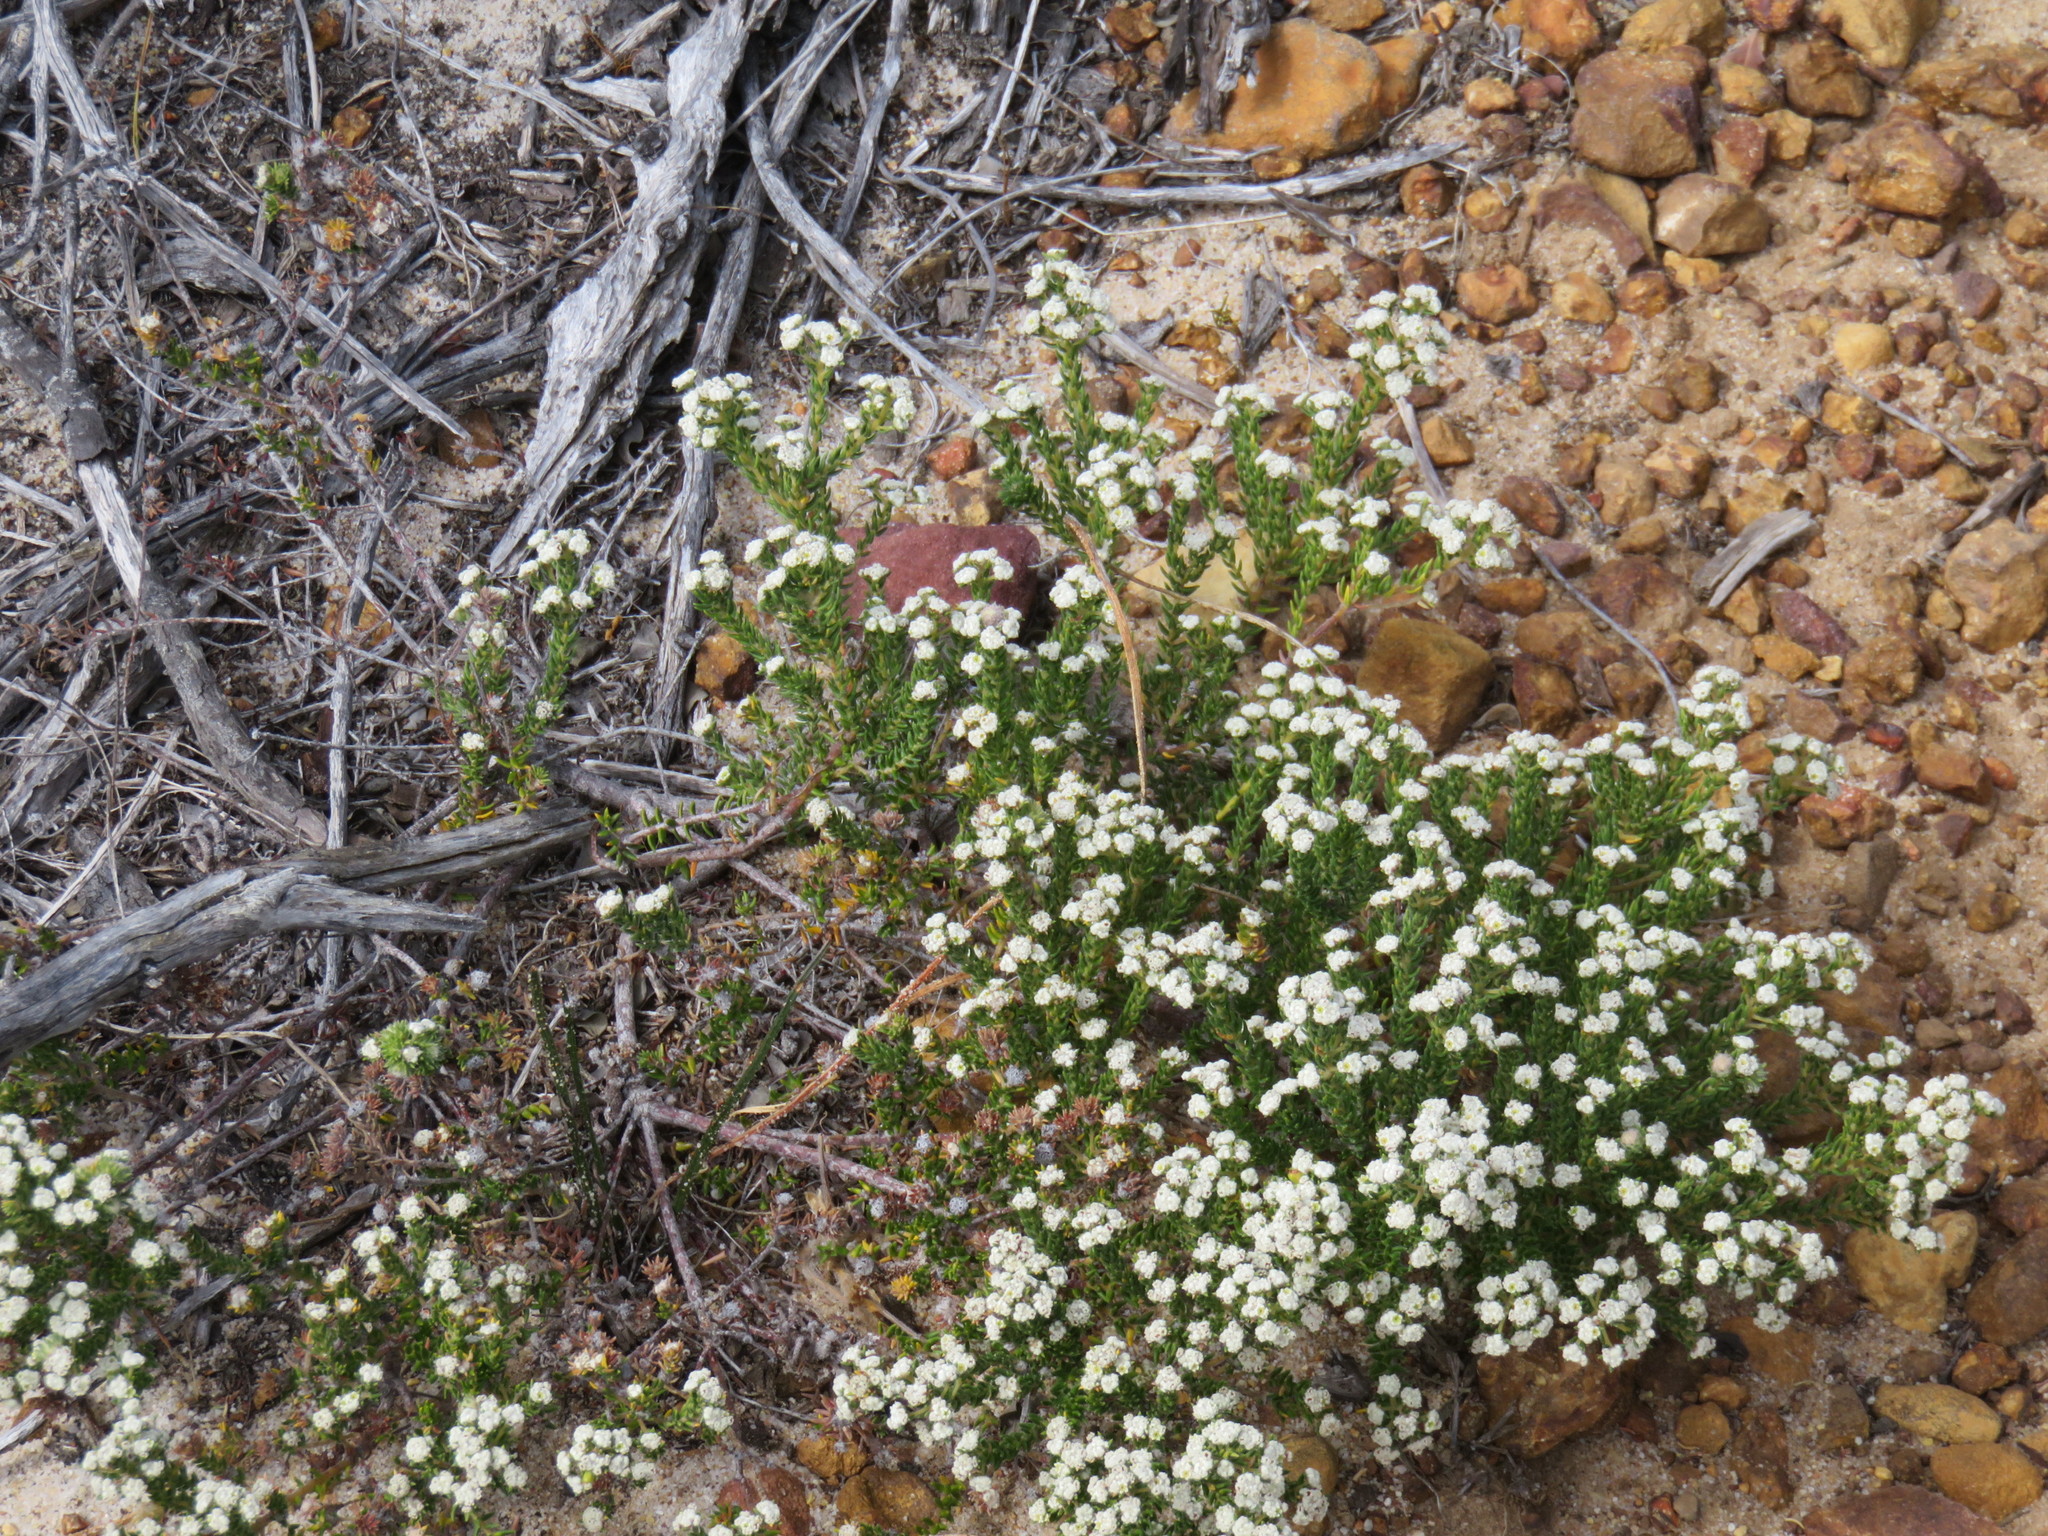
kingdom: Plantae
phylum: Tracheophyta
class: Magnoliopsida
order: Rosales
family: Rhamnaceae
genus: Phylica
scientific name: Phylica ericoides
